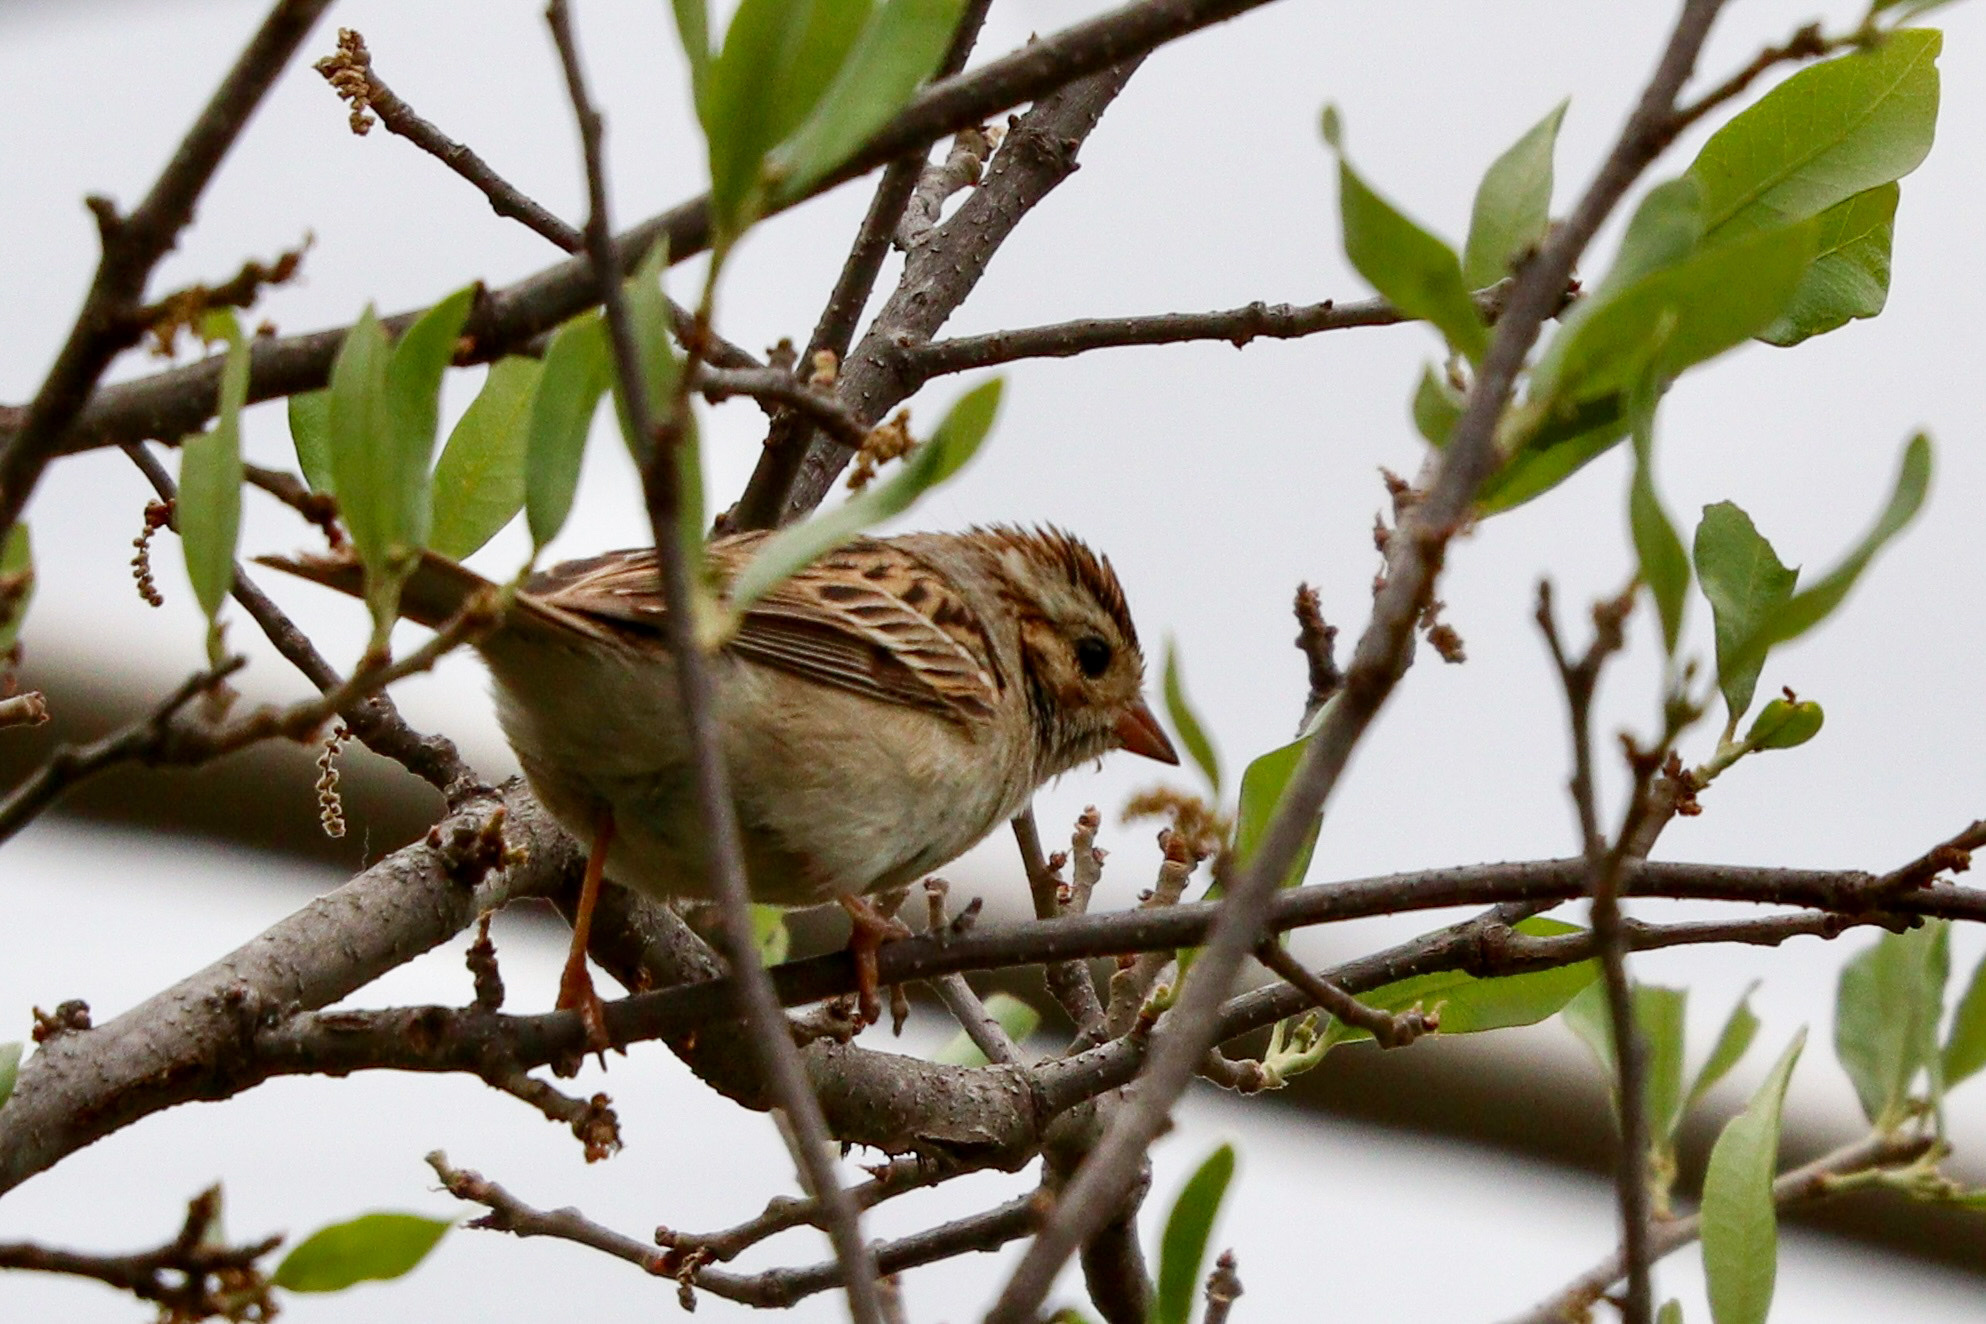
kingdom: Animalia
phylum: Chordata
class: Aves
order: Passeriformes
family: Passerellidae
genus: Spizella
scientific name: Spizella pallida
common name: Clay-colored sparrow
